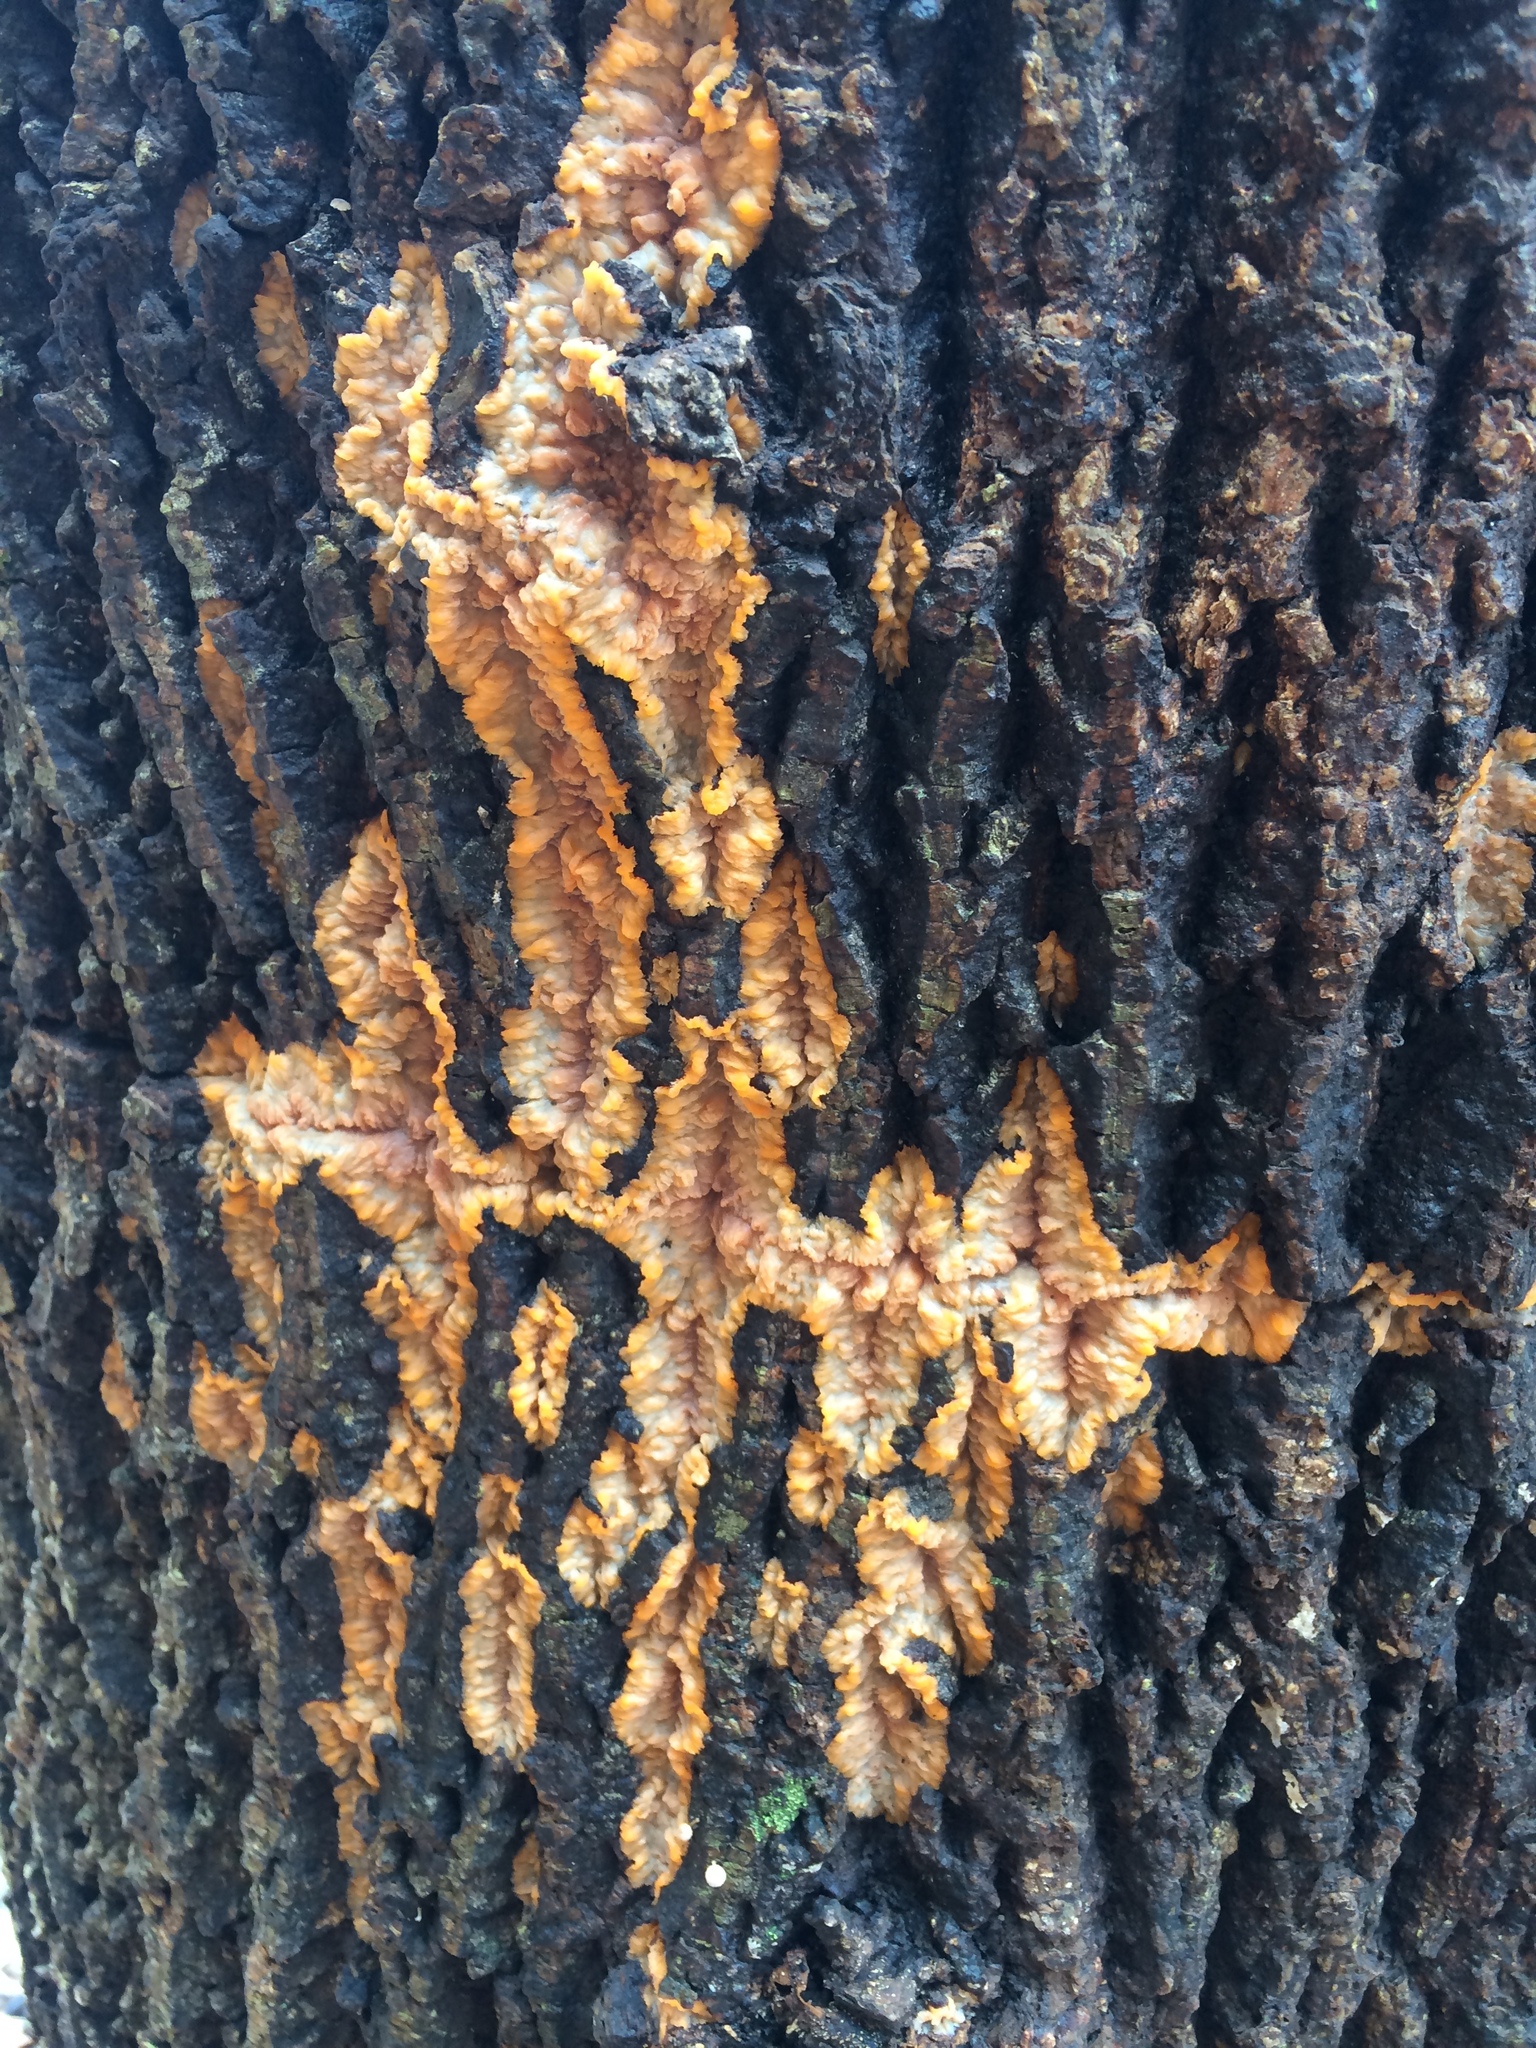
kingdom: Fungi
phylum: Basidiomycota
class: Agaricomycetes
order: Polyporales
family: Meruliaceae
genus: Phlebia
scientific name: Phlebia radiata
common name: Wrinkled crust
